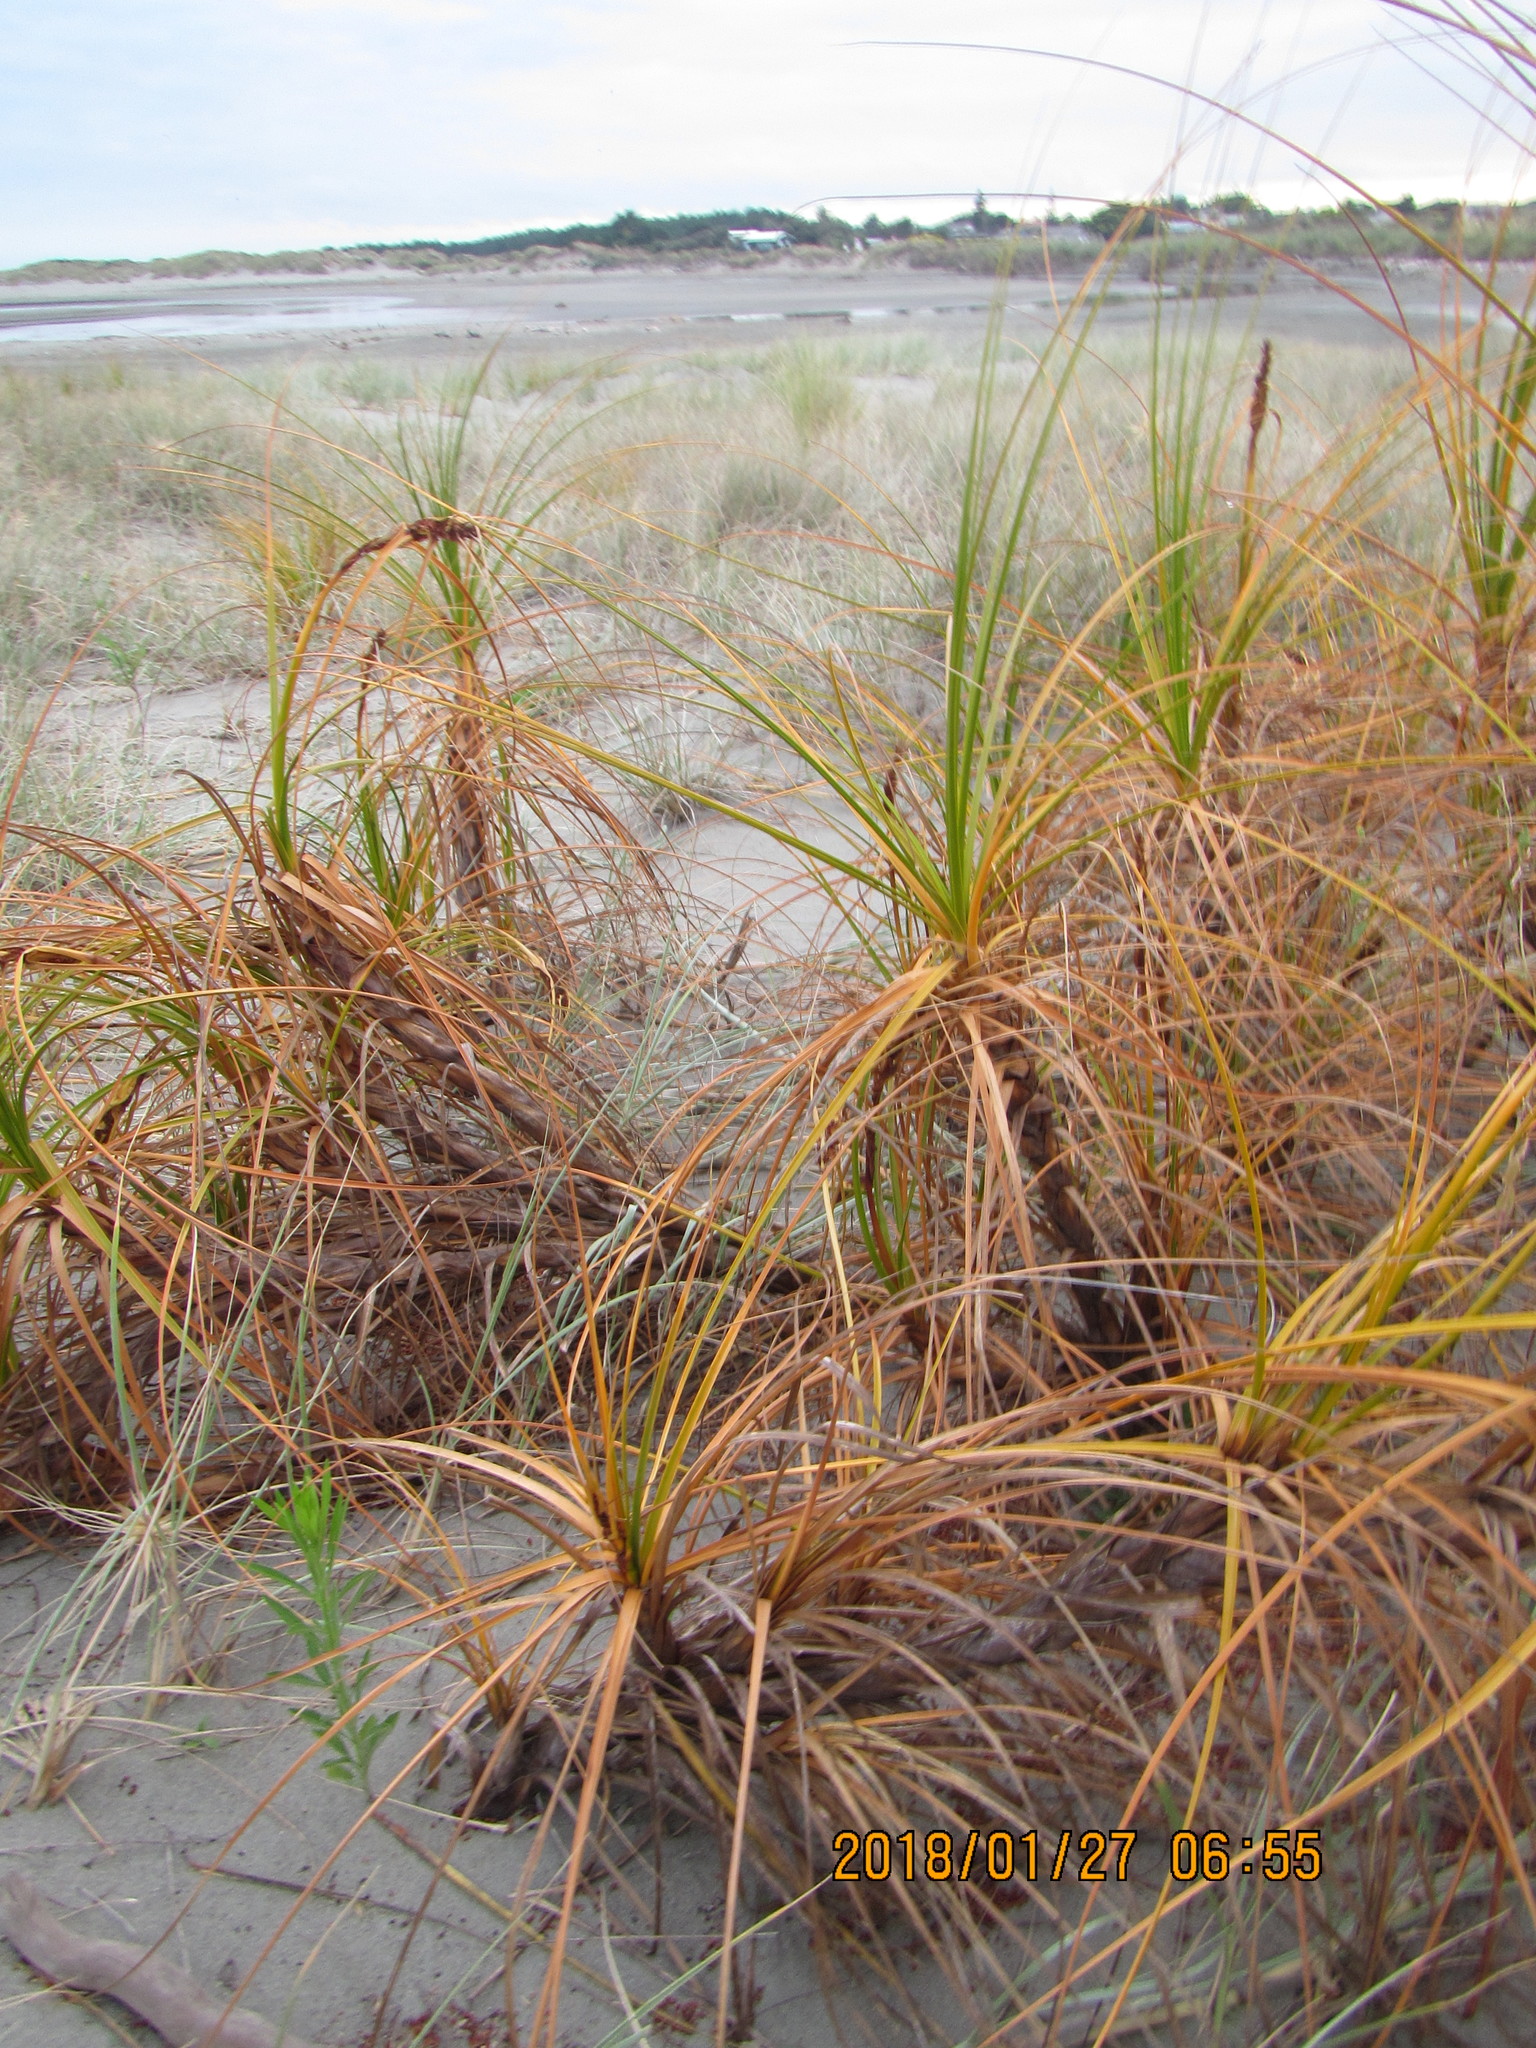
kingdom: Plantae
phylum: Tracheophyta
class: Liliopsida
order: Poales
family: Cyperaceae
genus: Ficinia
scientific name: Ficinia spiralis
